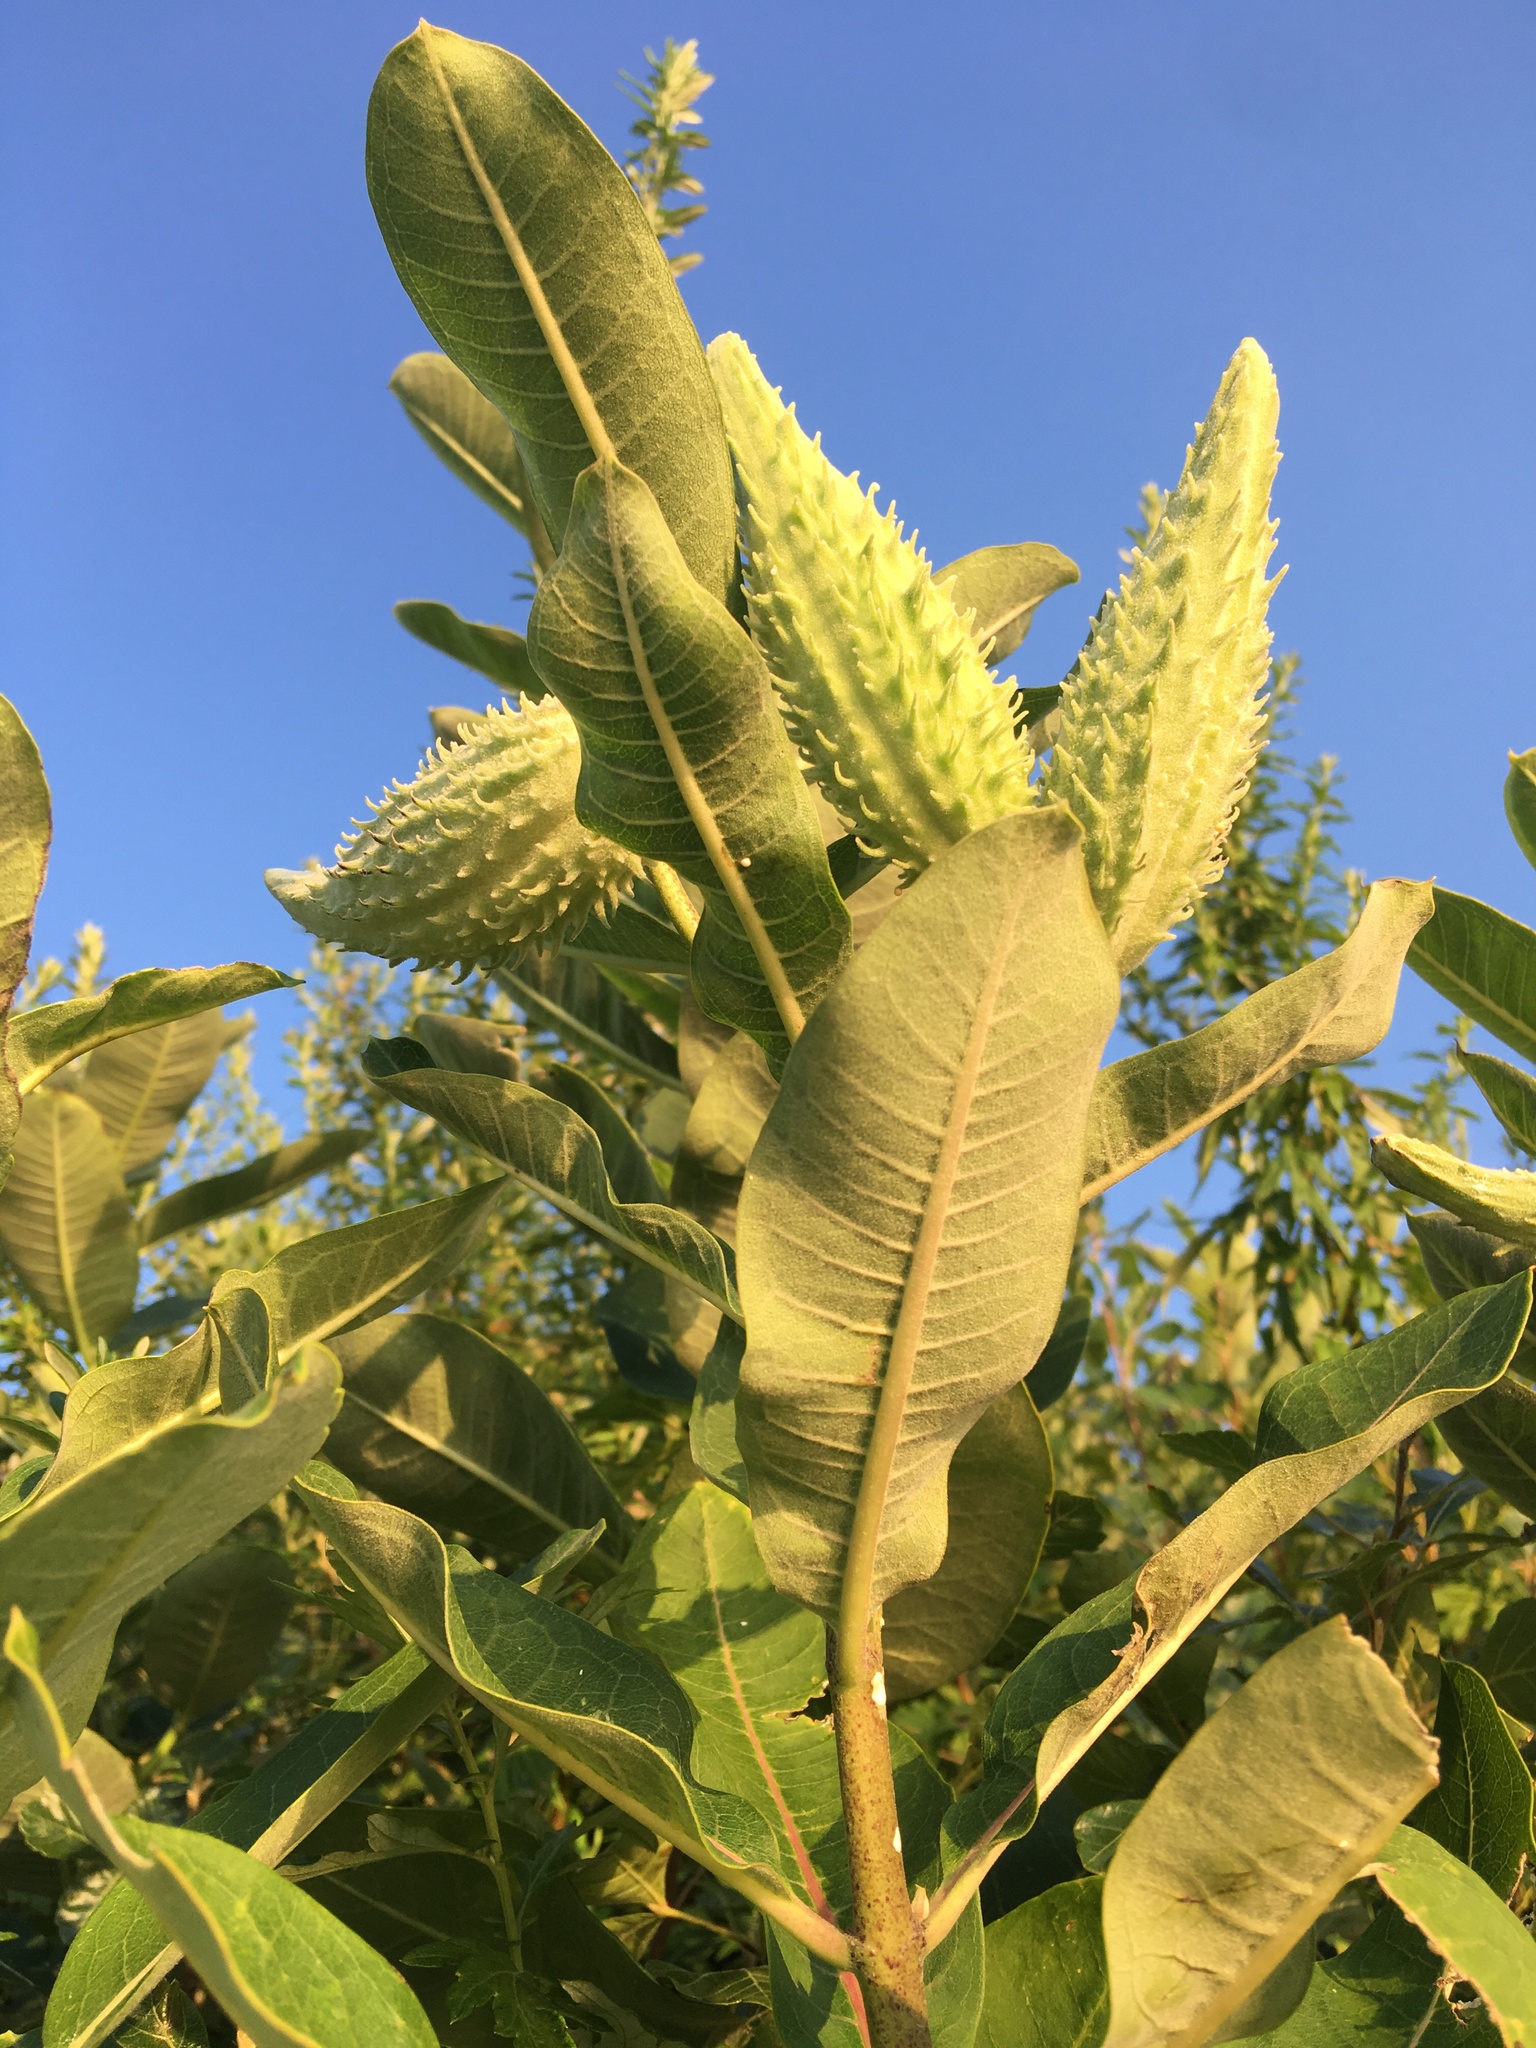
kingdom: Plantae
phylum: Tracheophyta
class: Magnoliopsida
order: Gentianales
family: Apocynaceae
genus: Asclepias
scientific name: Asclepias syriaca
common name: Common milkweed
